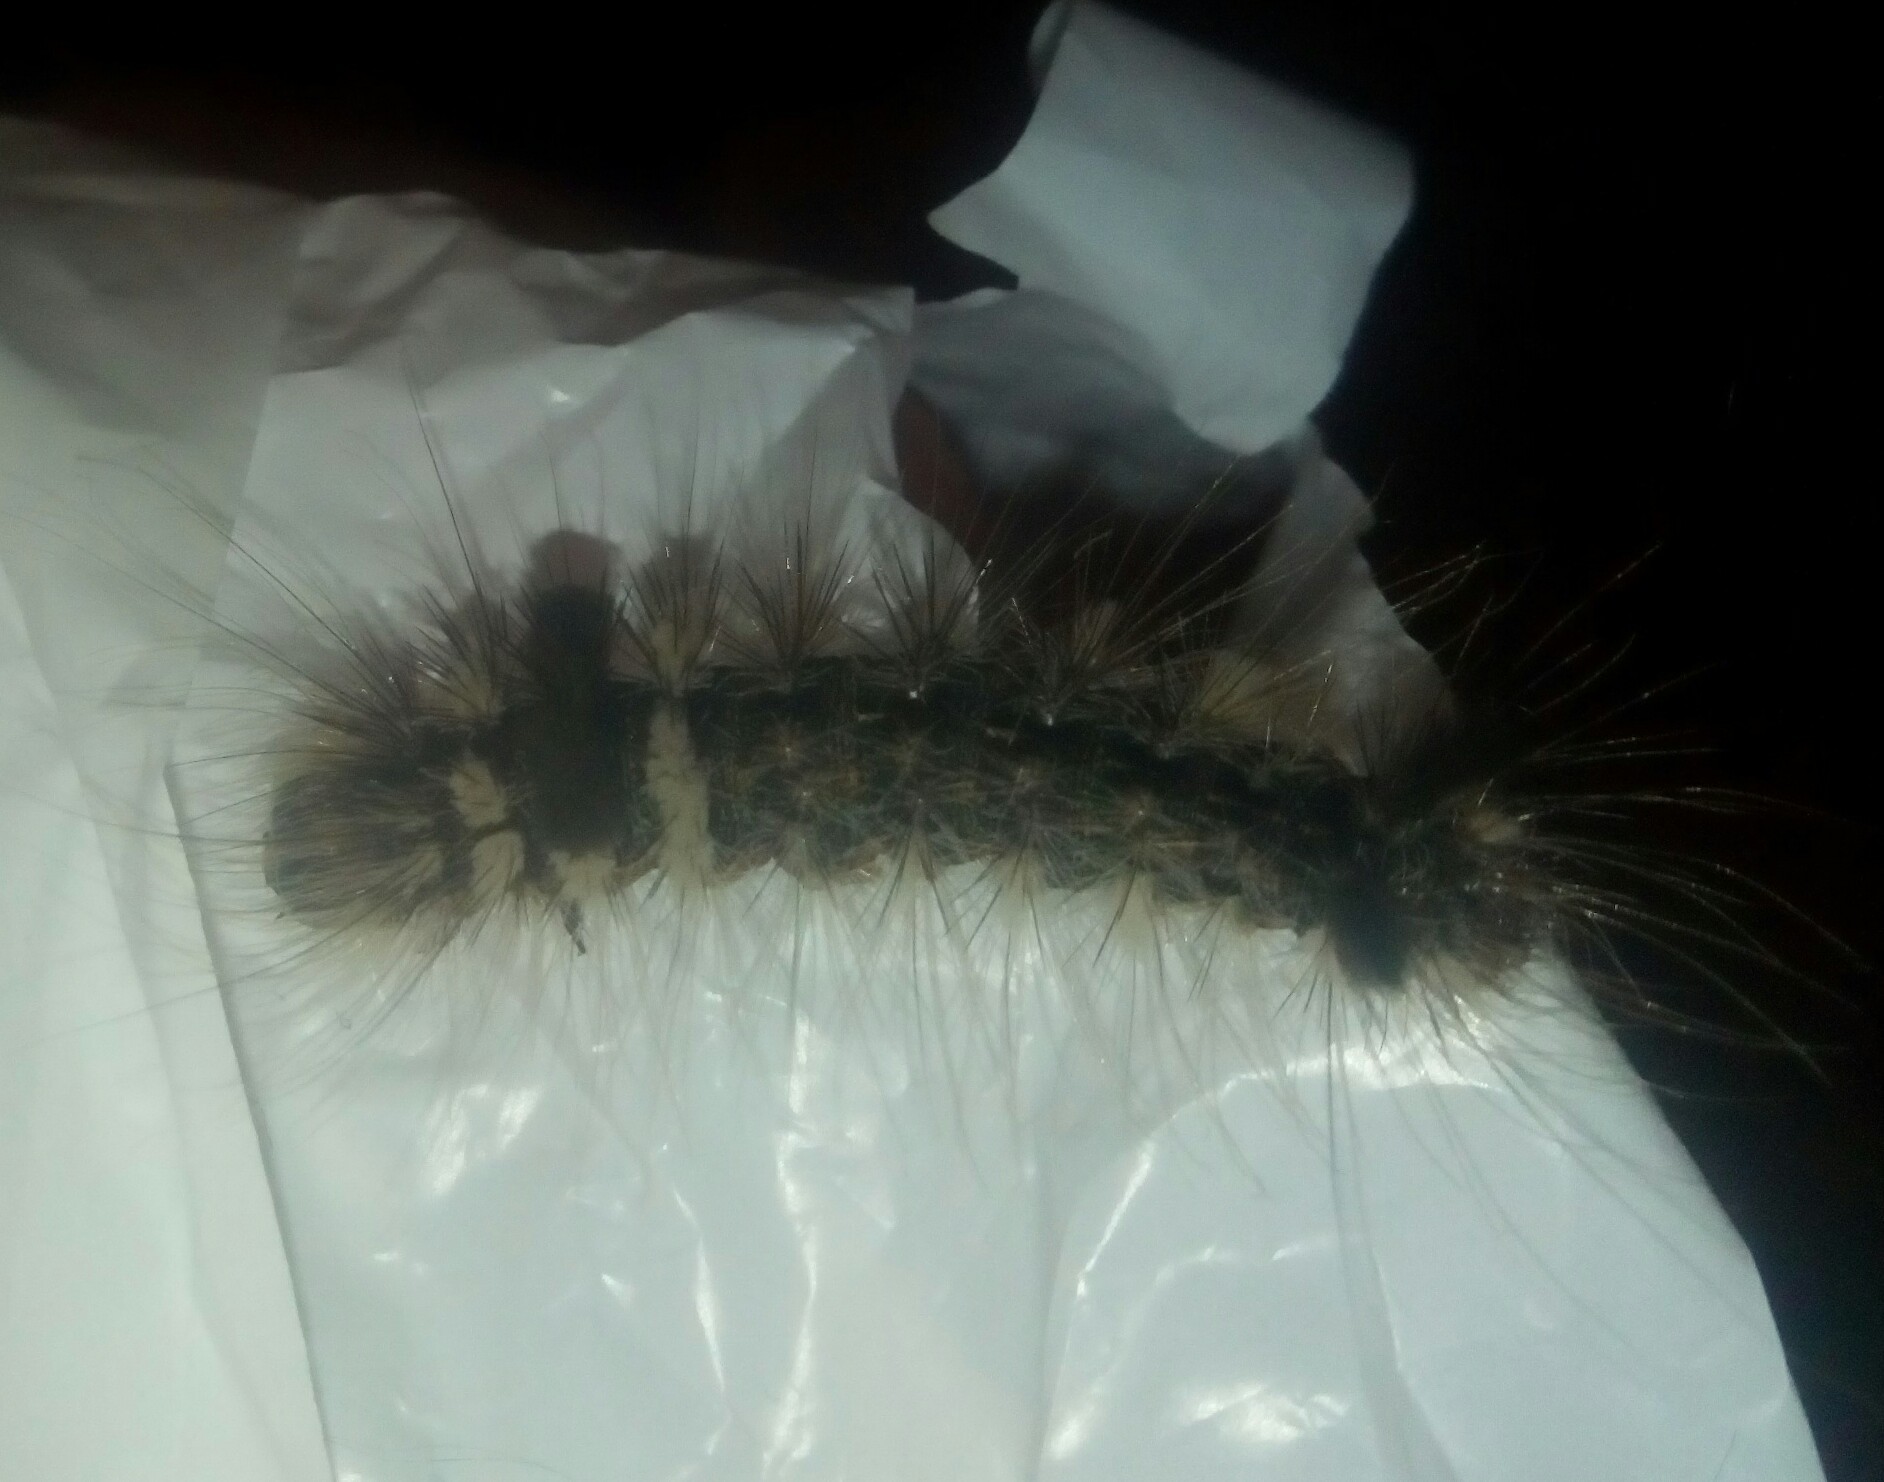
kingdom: Animalia
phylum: Arthropoda
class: Insecta
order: Lepidoptera
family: Noctuidae
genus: Acronicta
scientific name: Acronicta impleta
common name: Powdered dagger
